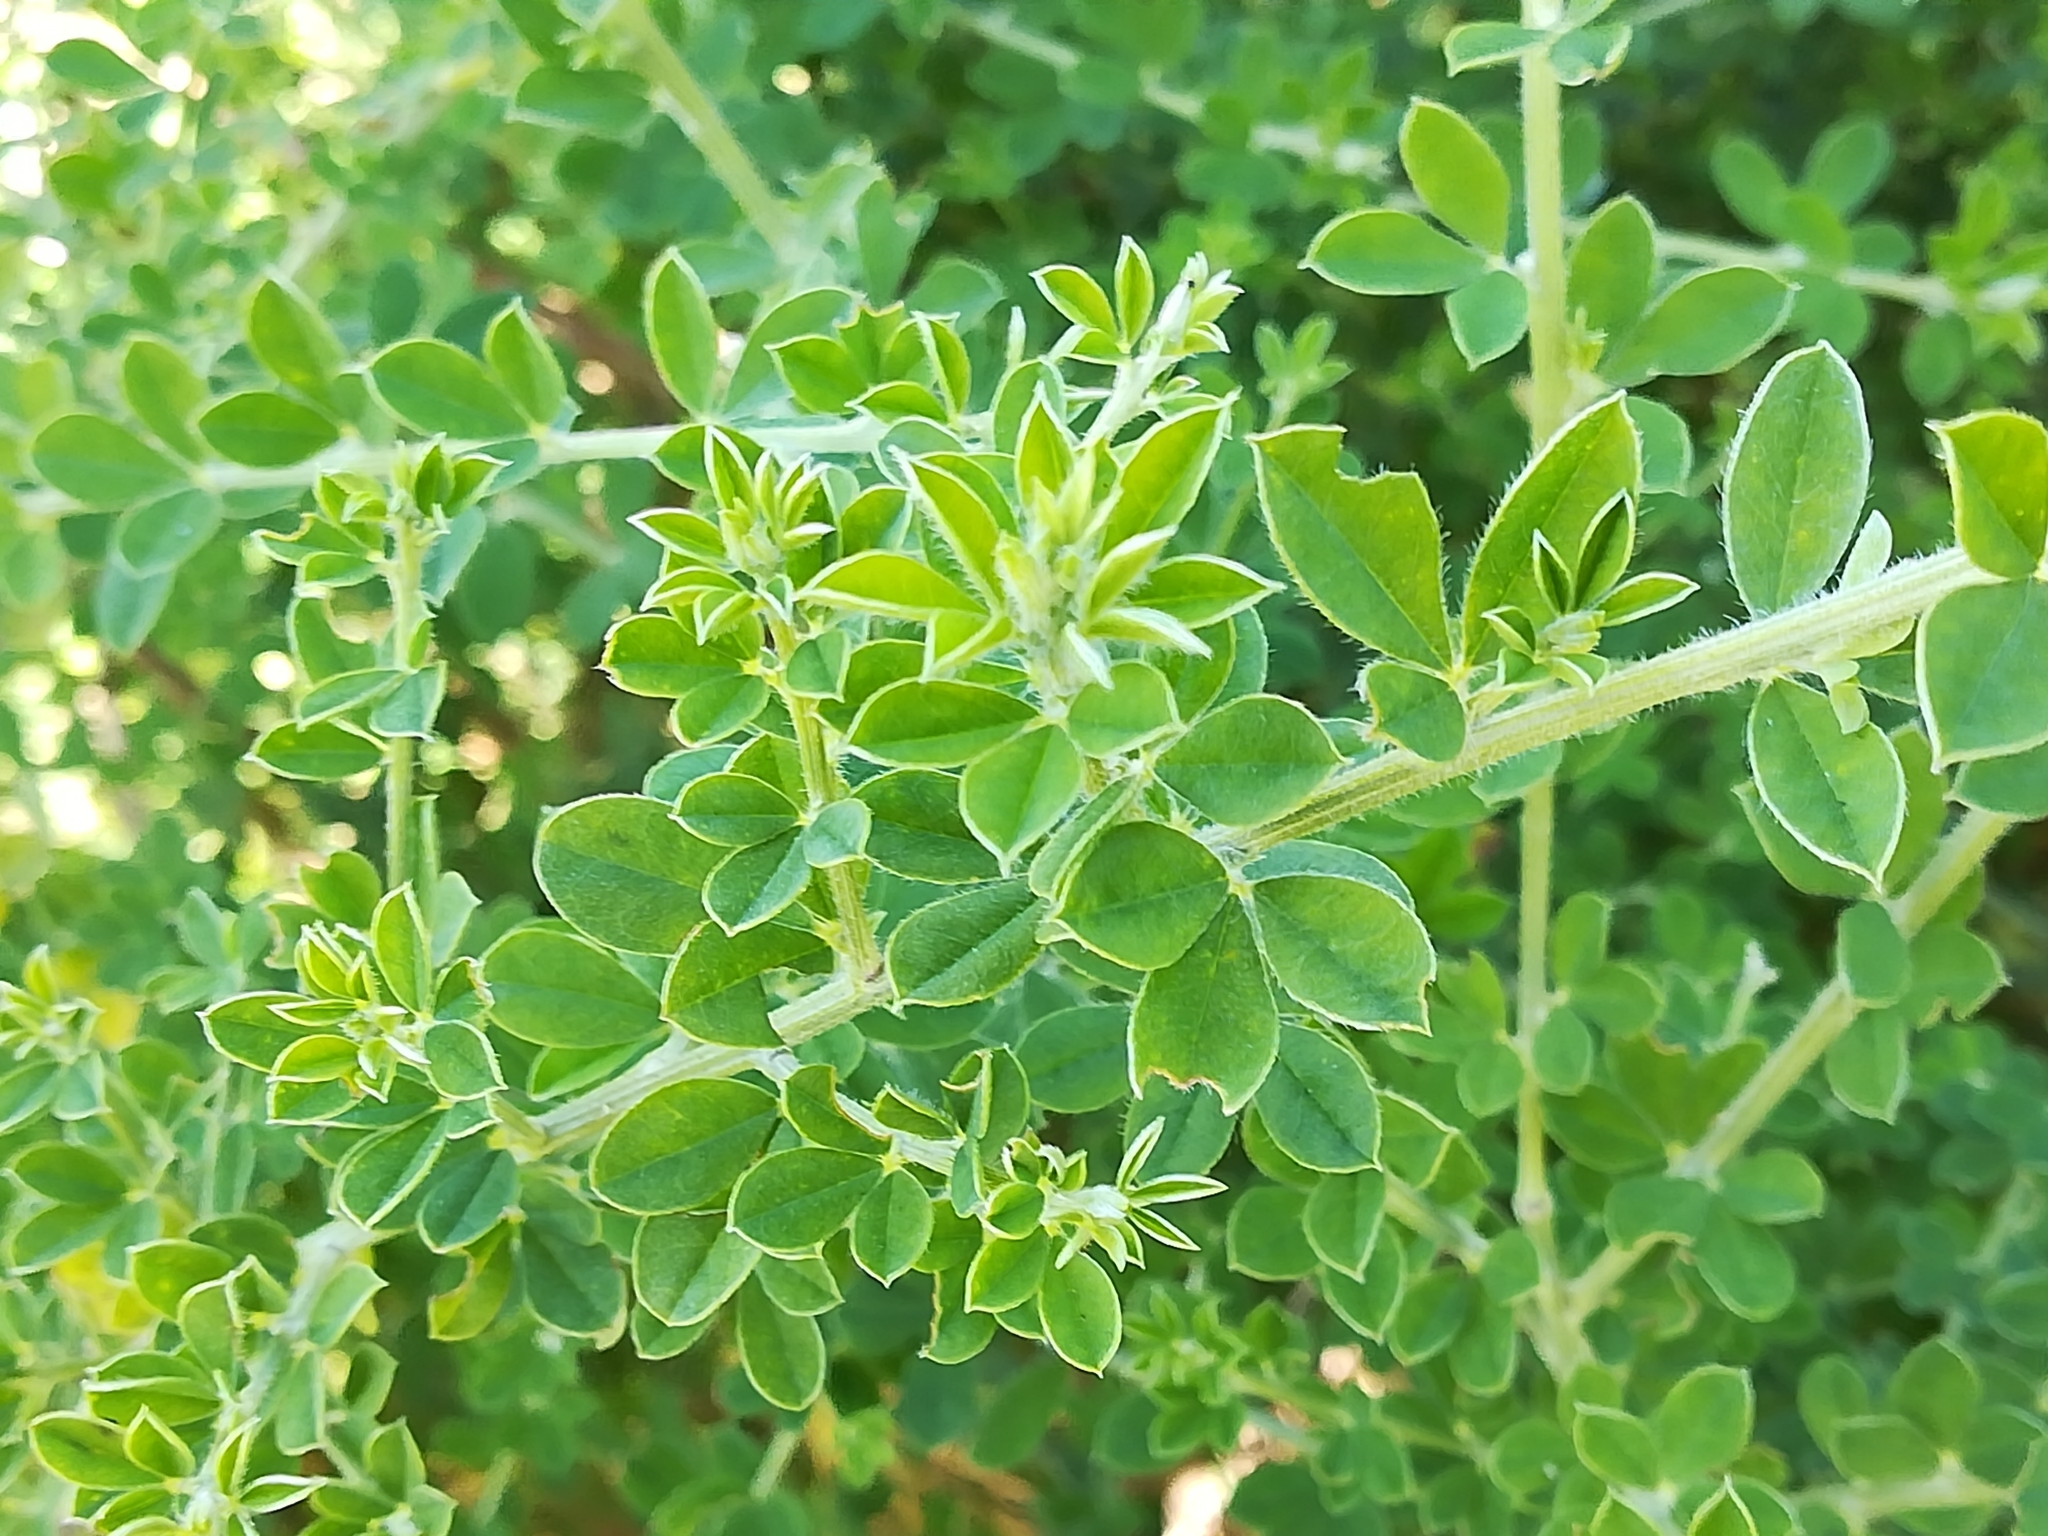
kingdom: Plantae
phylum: Tracheophyta
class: Magnoliopsida
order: Fabales
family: Fabaceae
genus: Genista
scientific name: Genista monspessulana
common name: Montpellier broom
